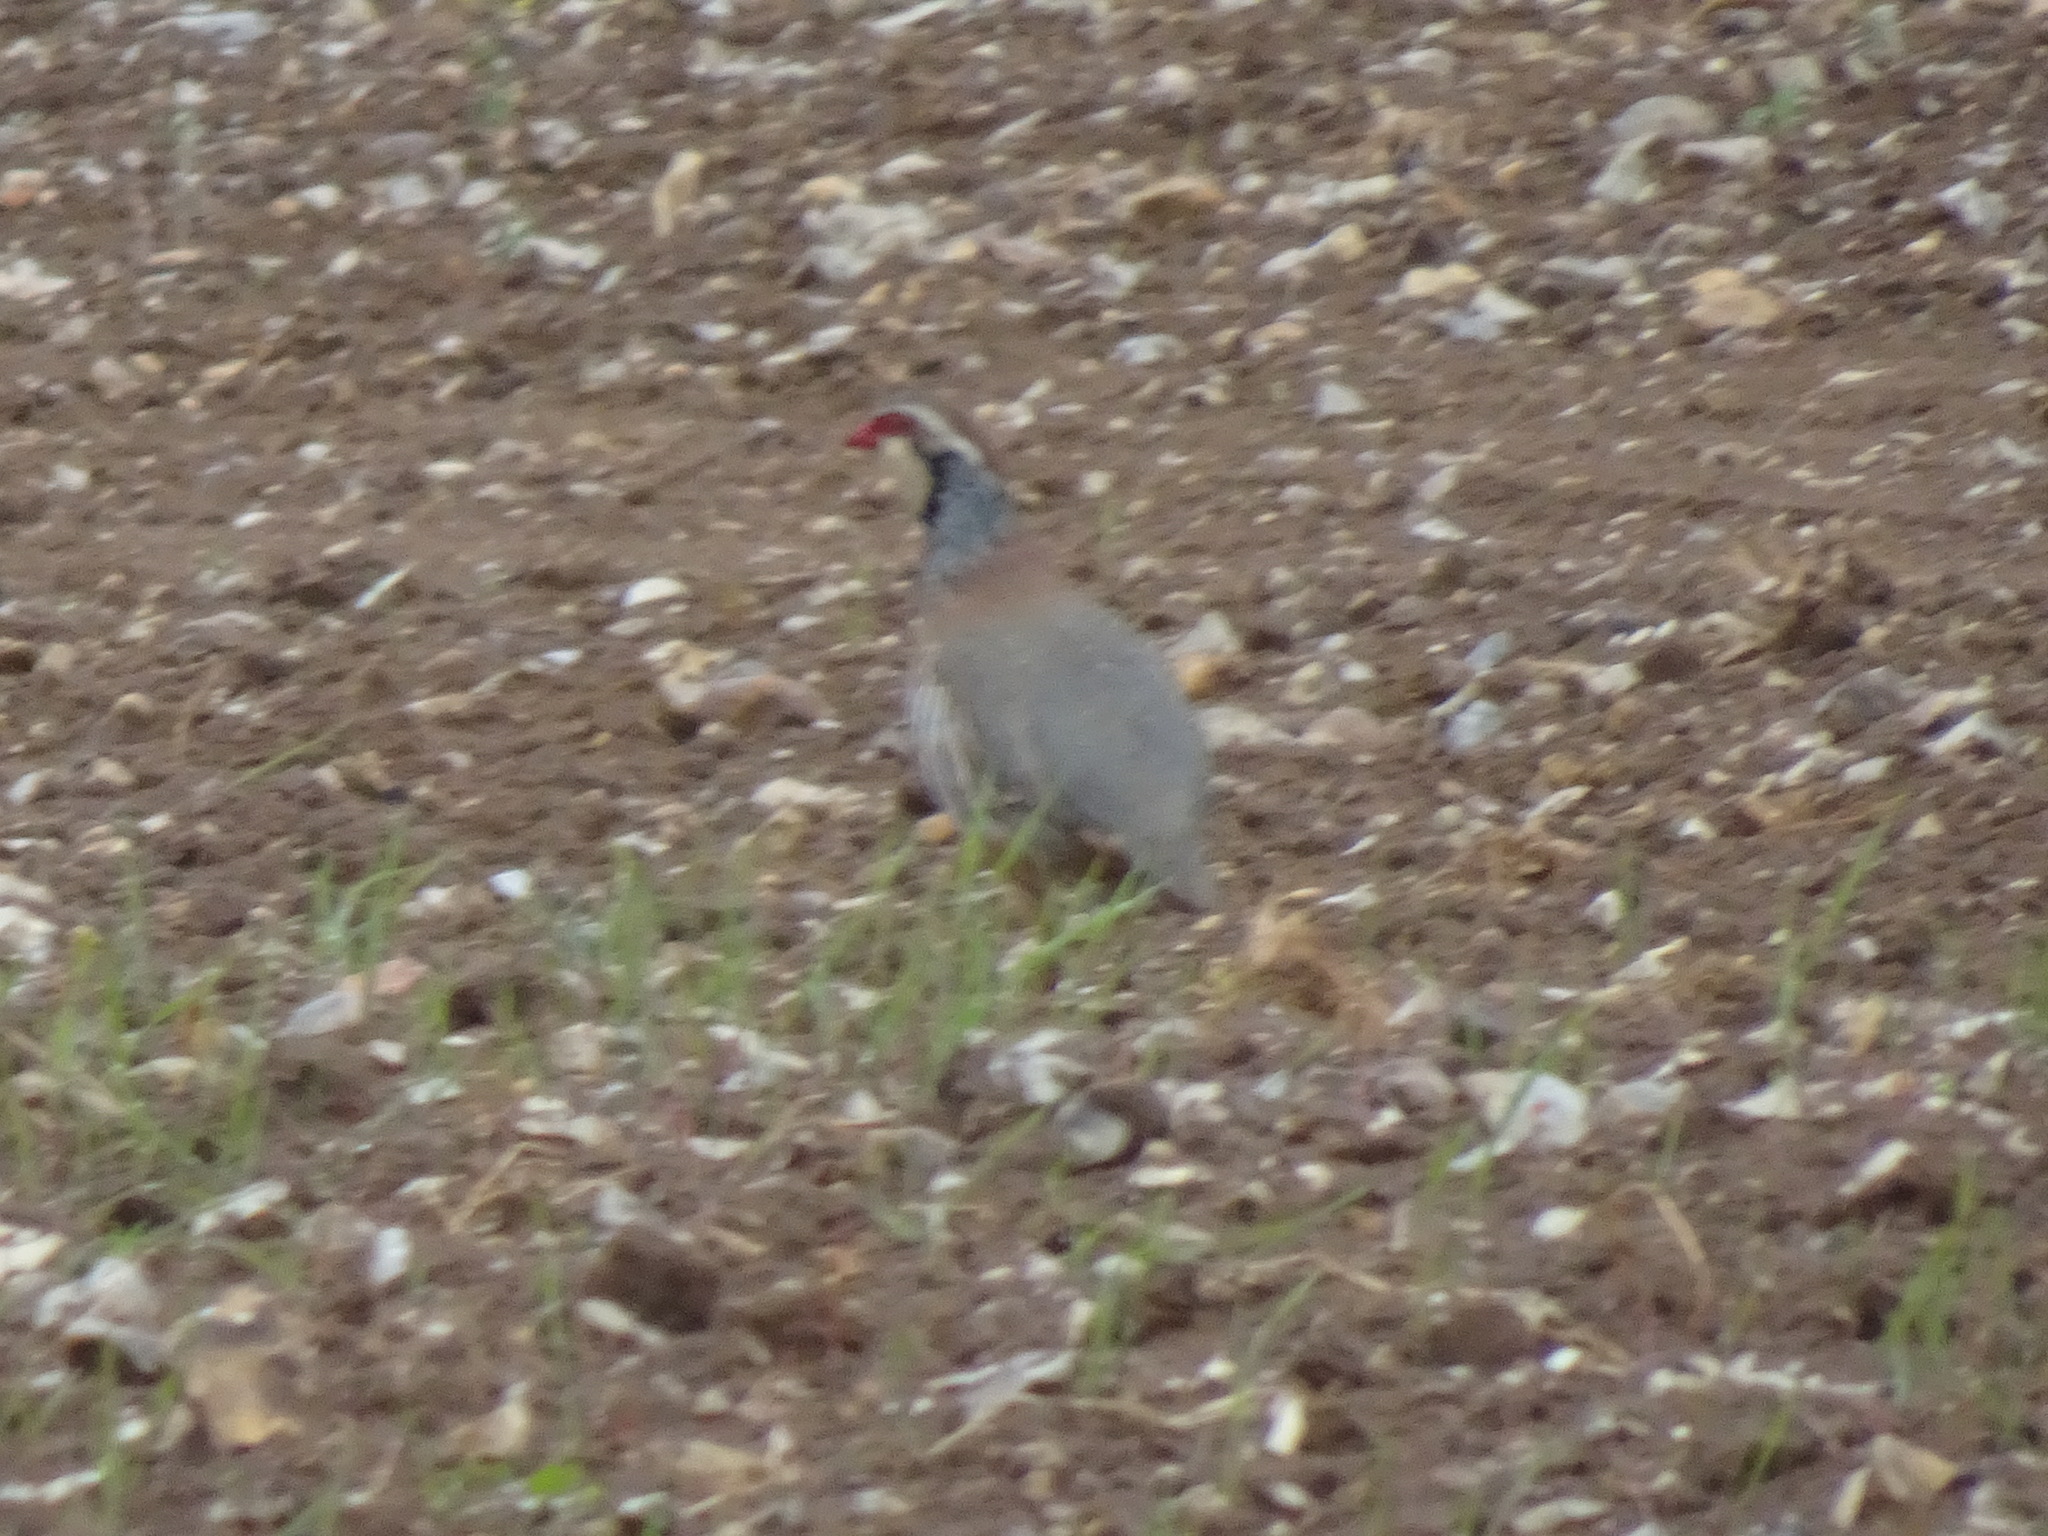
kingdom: Animalia
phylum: Chordata
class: Aves
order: Galliformes
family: Phasianidae
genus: Alectoris
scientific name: Alectoris rufa
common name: Red-legged partridge
